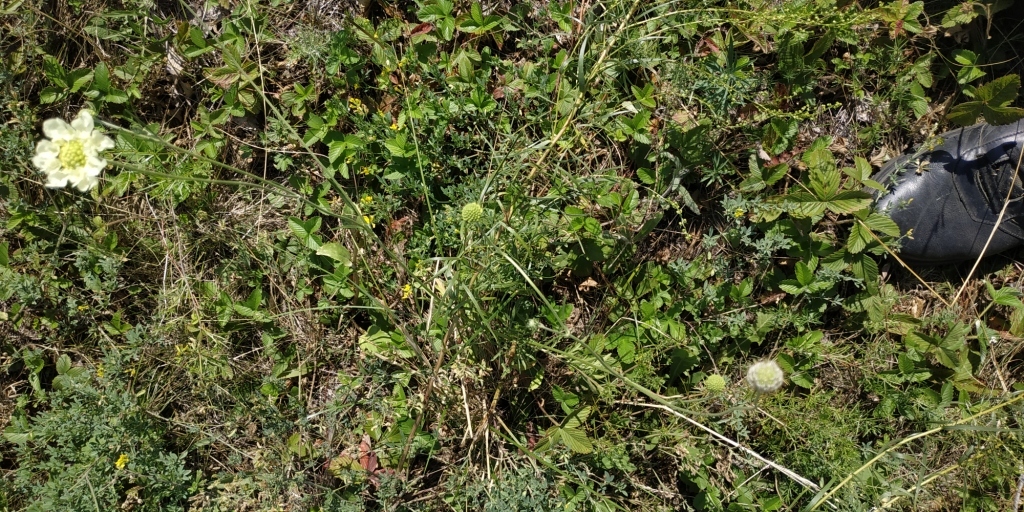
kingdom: Plantae
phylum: Tracheophyta
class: Magnoliopsida
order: Dipsacales
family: Caprifoliaceae
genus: Scabiosa
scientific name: Scabiosa ochroleuca
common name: Cream pincushions
